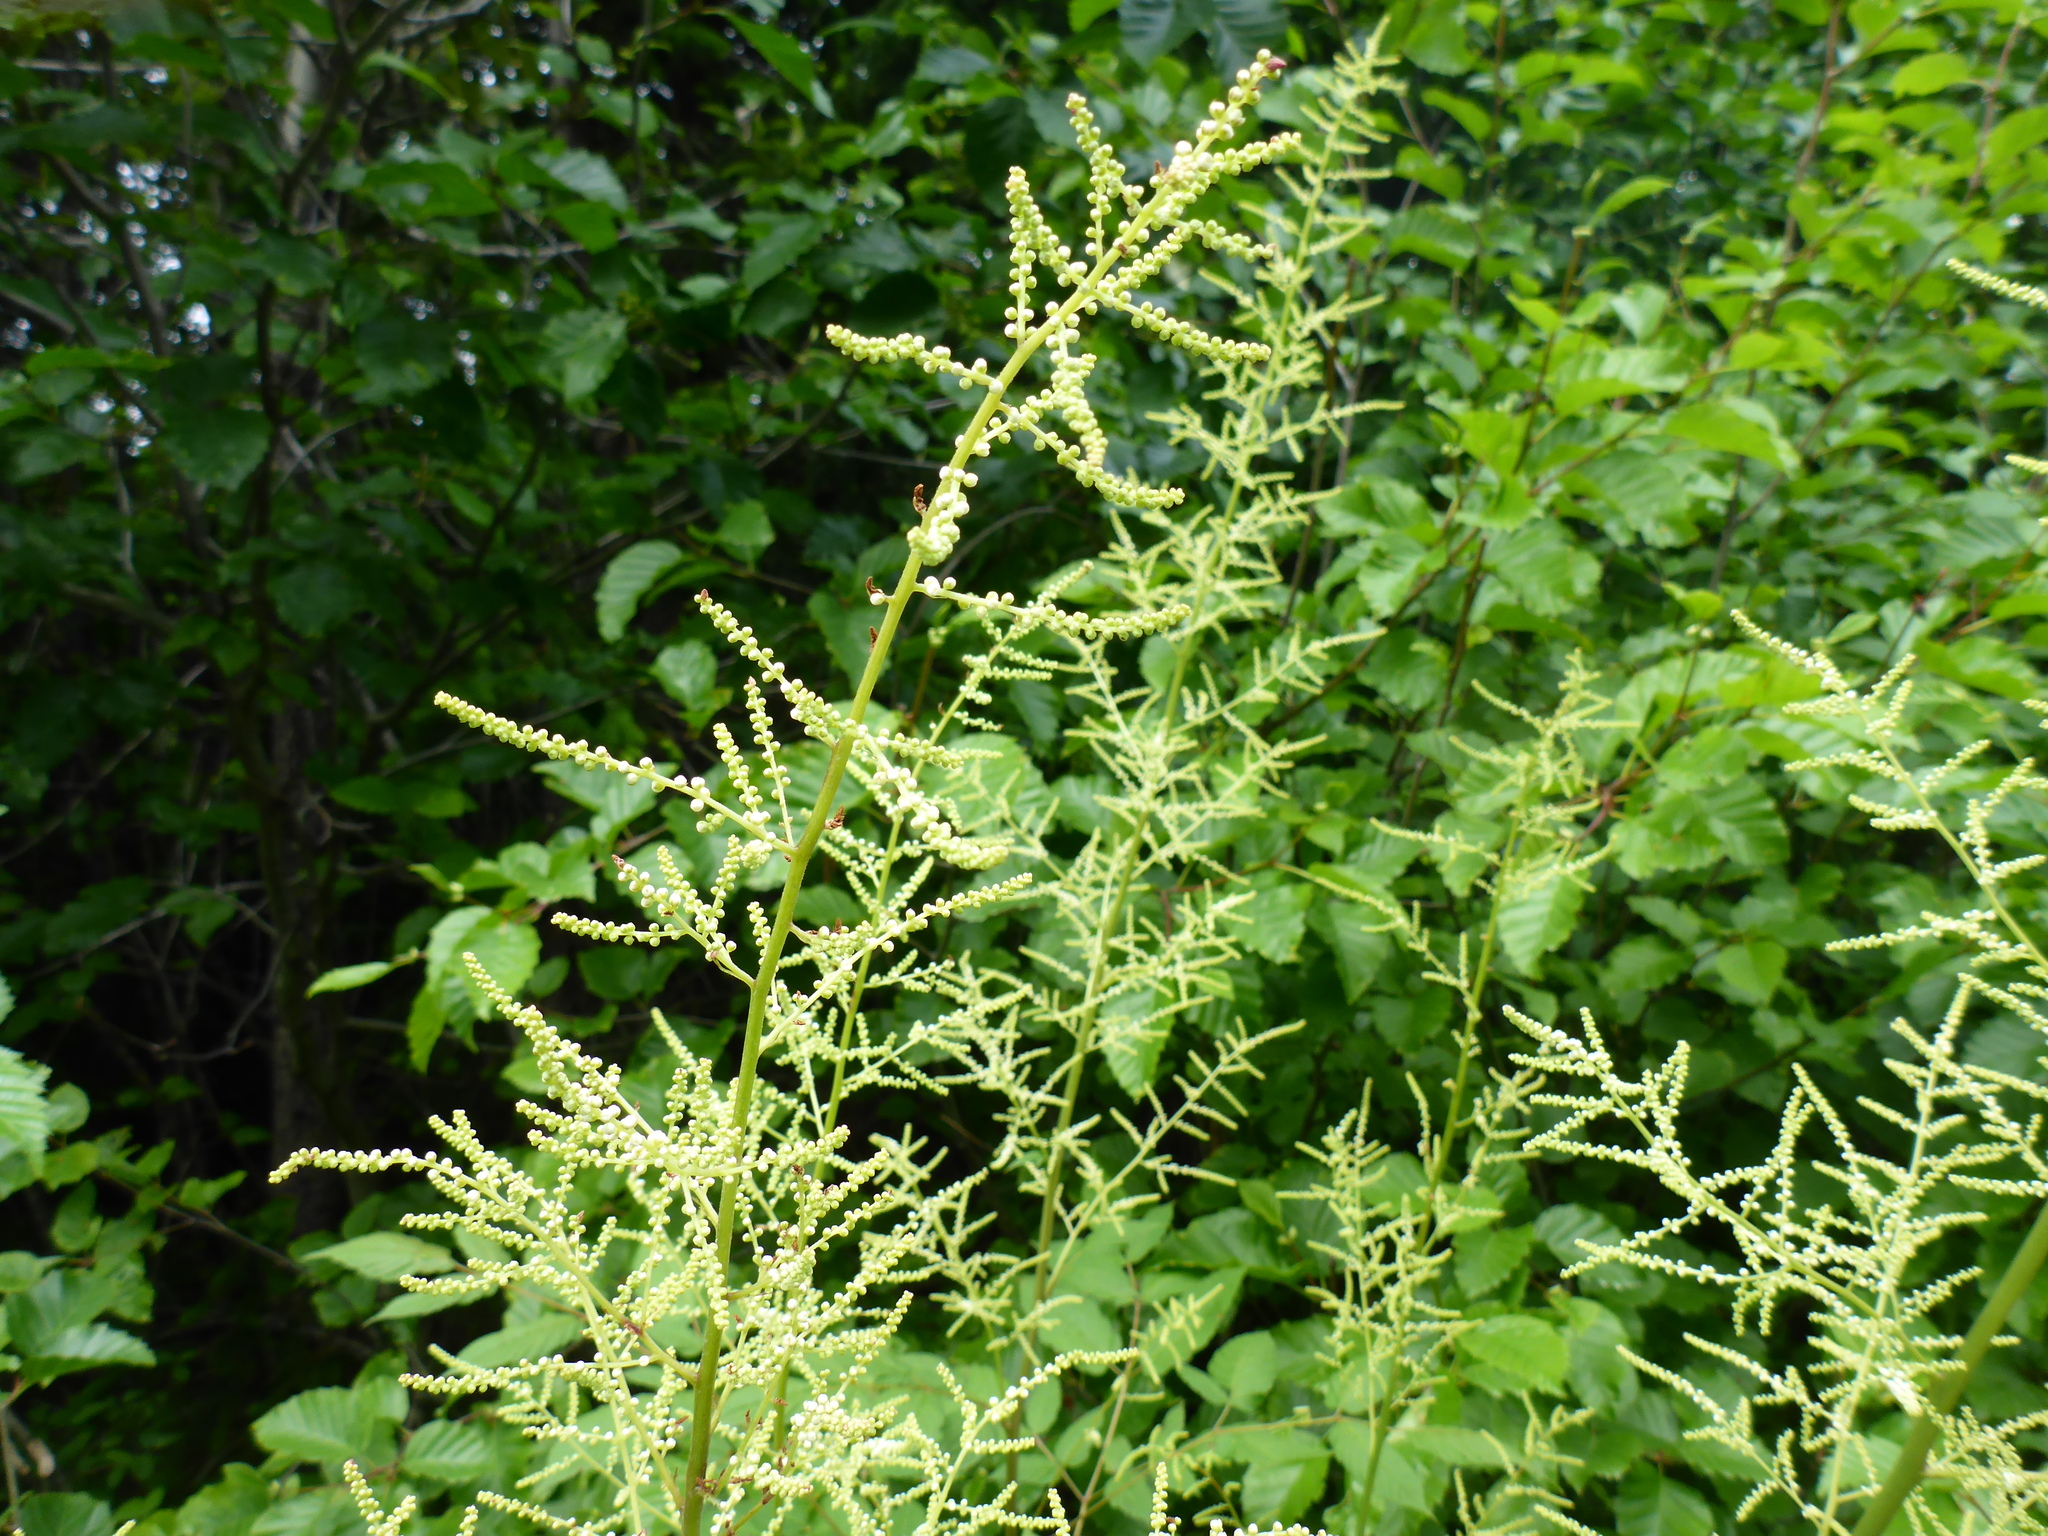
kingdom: Plantae
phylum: Tracheophyta
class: Magnoliopsida
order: Rosales
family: Rosaceae
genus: Aruncus
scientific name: Aruncus dioicus
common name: Buck's-beard
